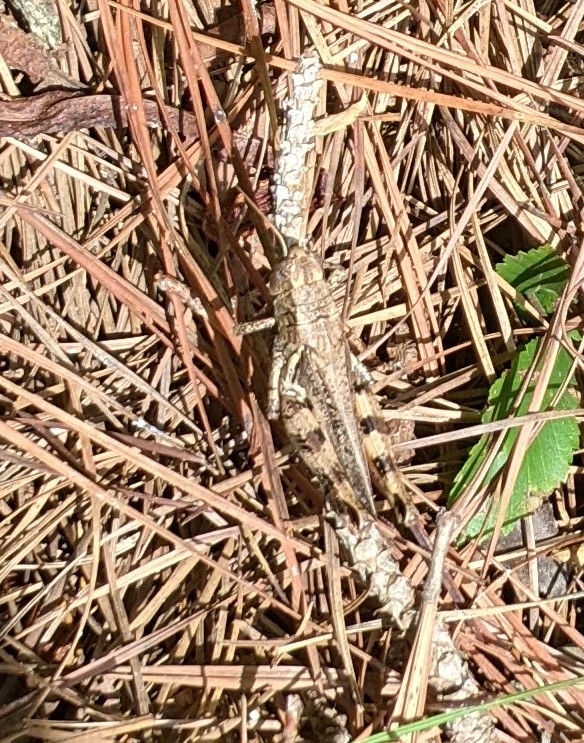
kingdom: Animalia
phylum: Arthropoda
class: Insecta
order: Orthoptera
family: Acrididae
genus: Melanoplus
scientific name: Melanoplus ponderosus
